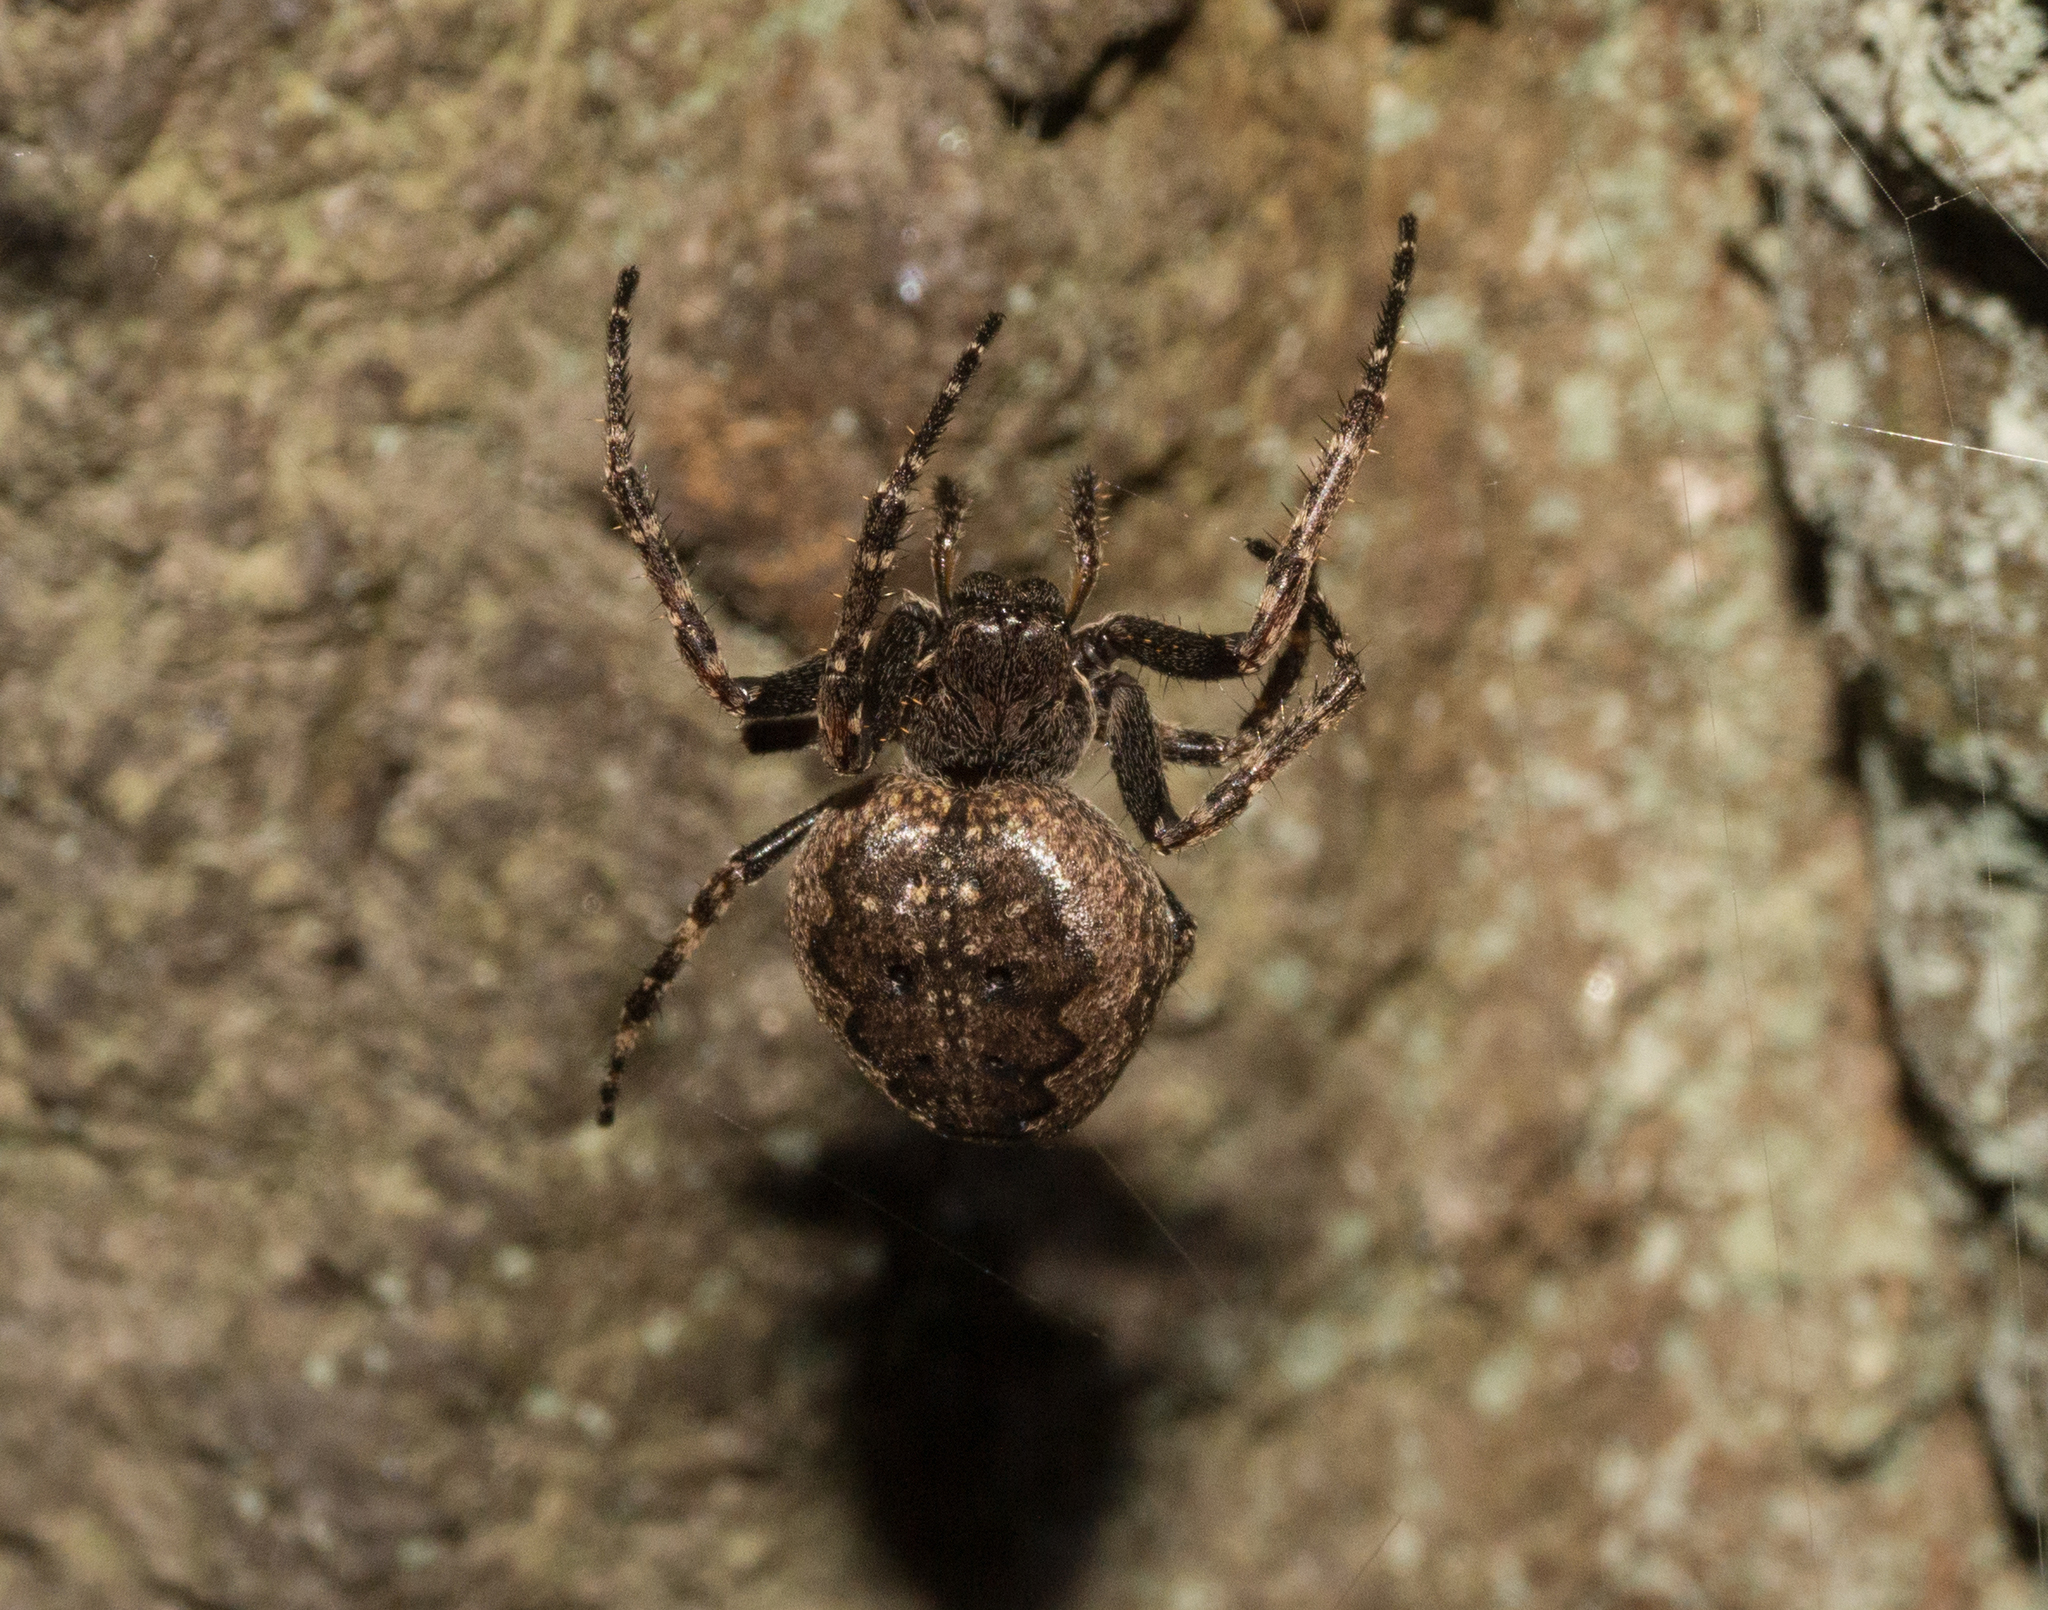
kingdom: Animalia
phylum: Arthropoda
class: Arachnida
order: Araneae
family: Araneidae
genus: Nuctenea
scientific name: Nuctenea umbratica
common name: Toad spider
